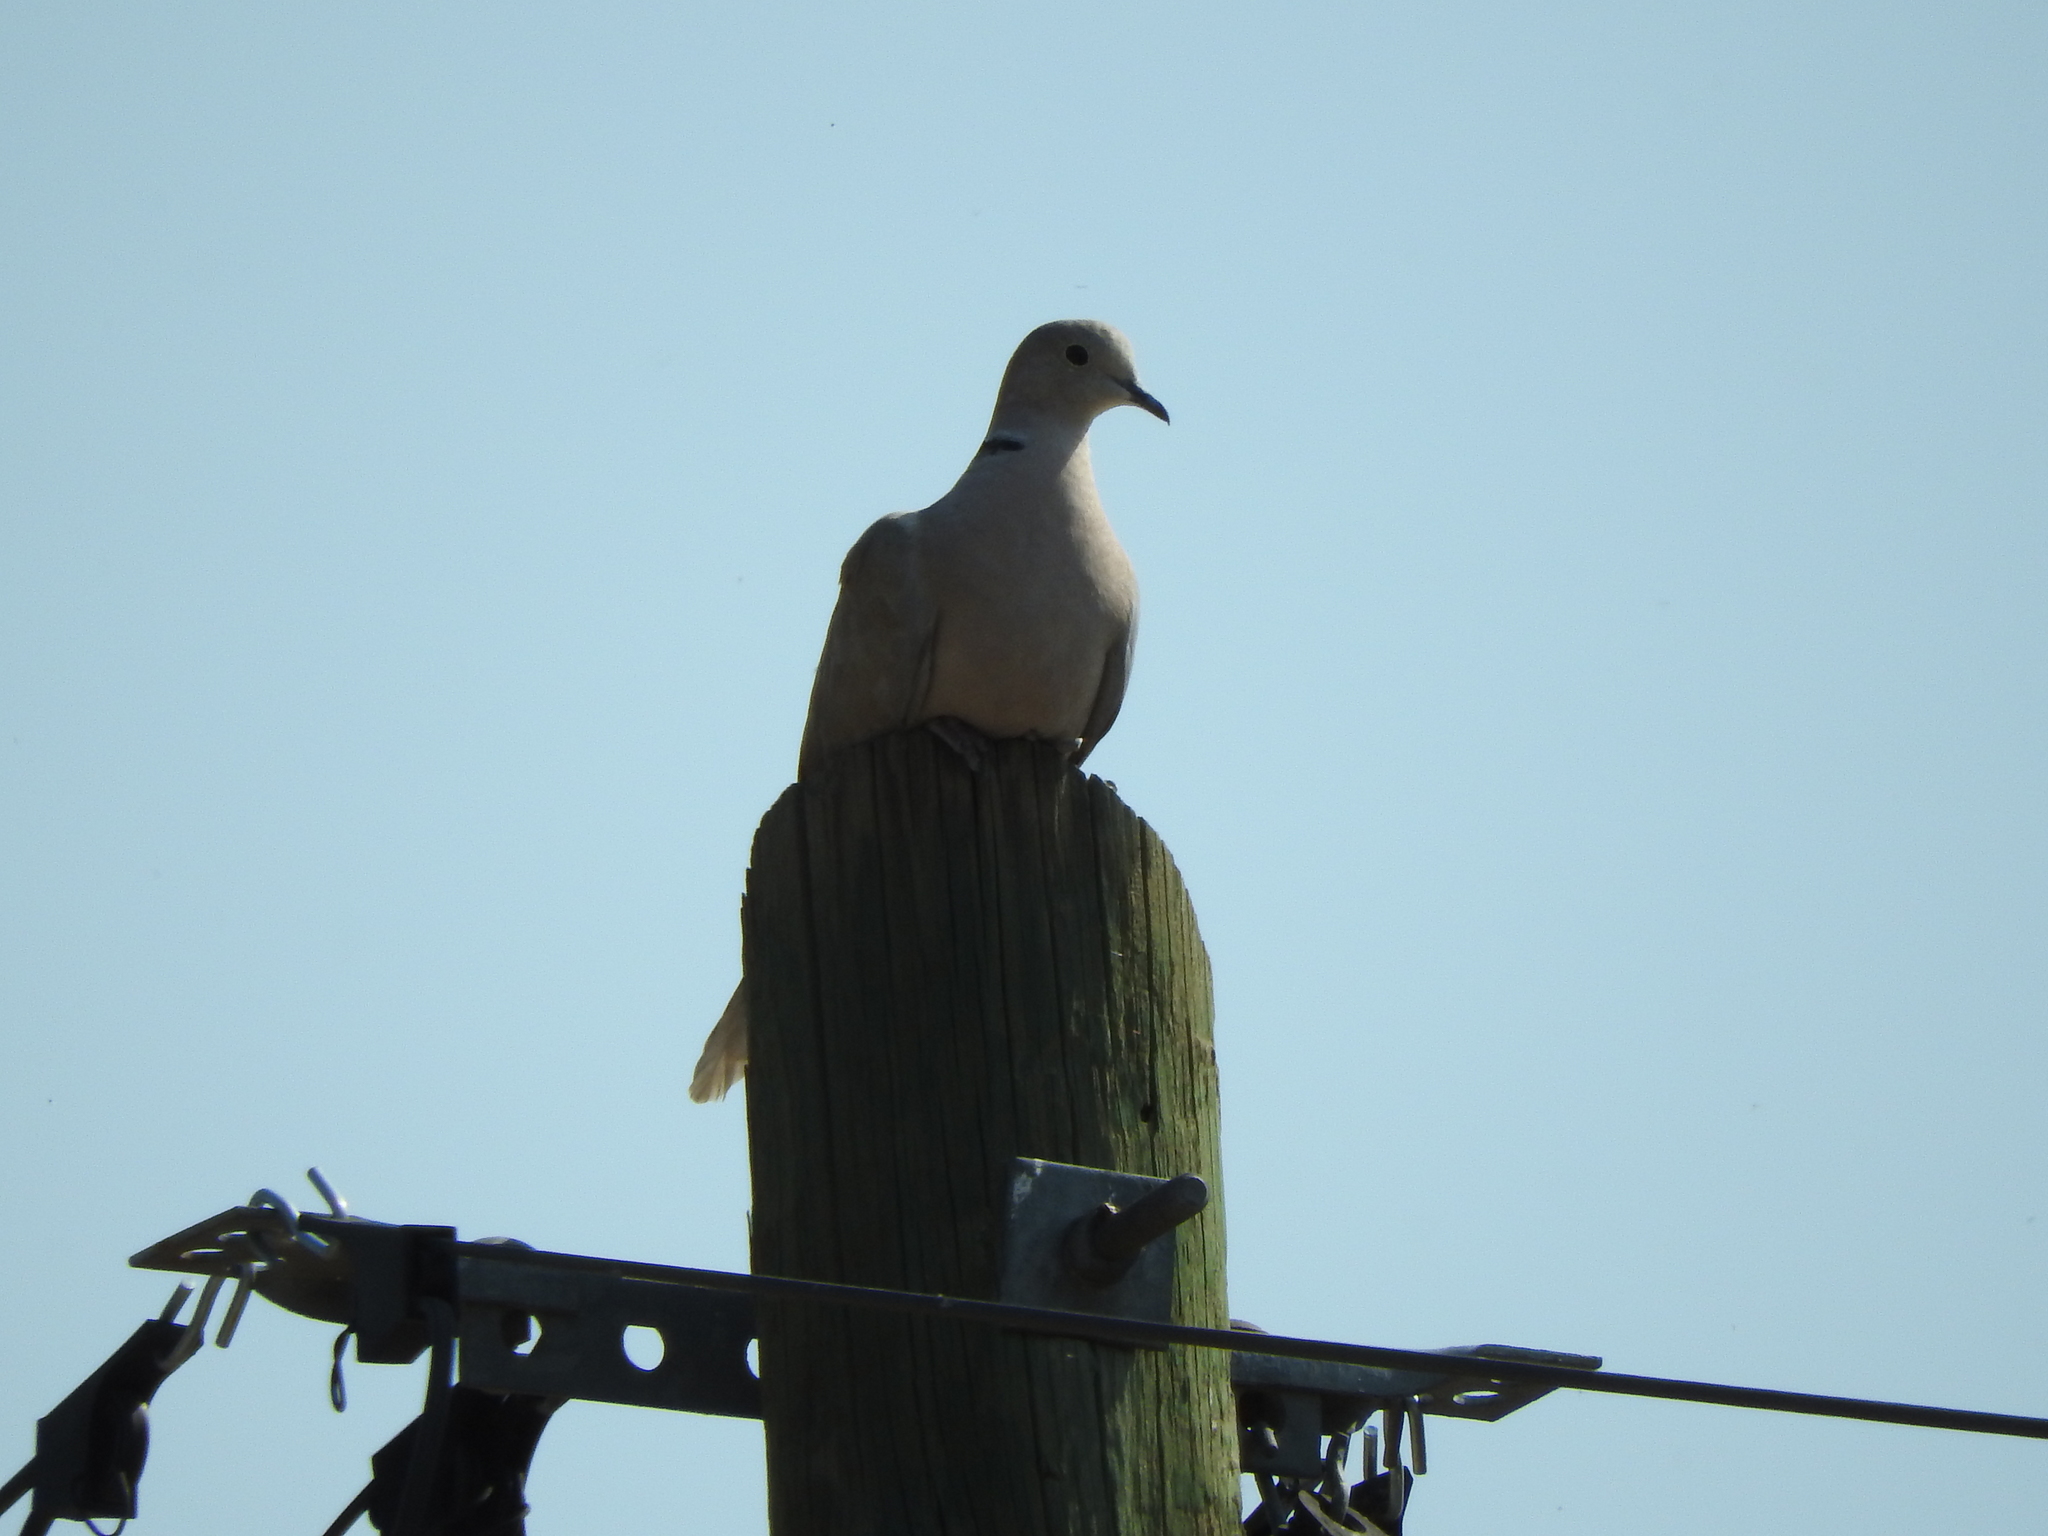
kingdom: Animalia
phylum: Chordata
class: Aves
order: Columbiformes
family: Columbidae
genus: Streptopelia
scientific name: Streptopelia decaocto
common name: Eurasian collared dove
